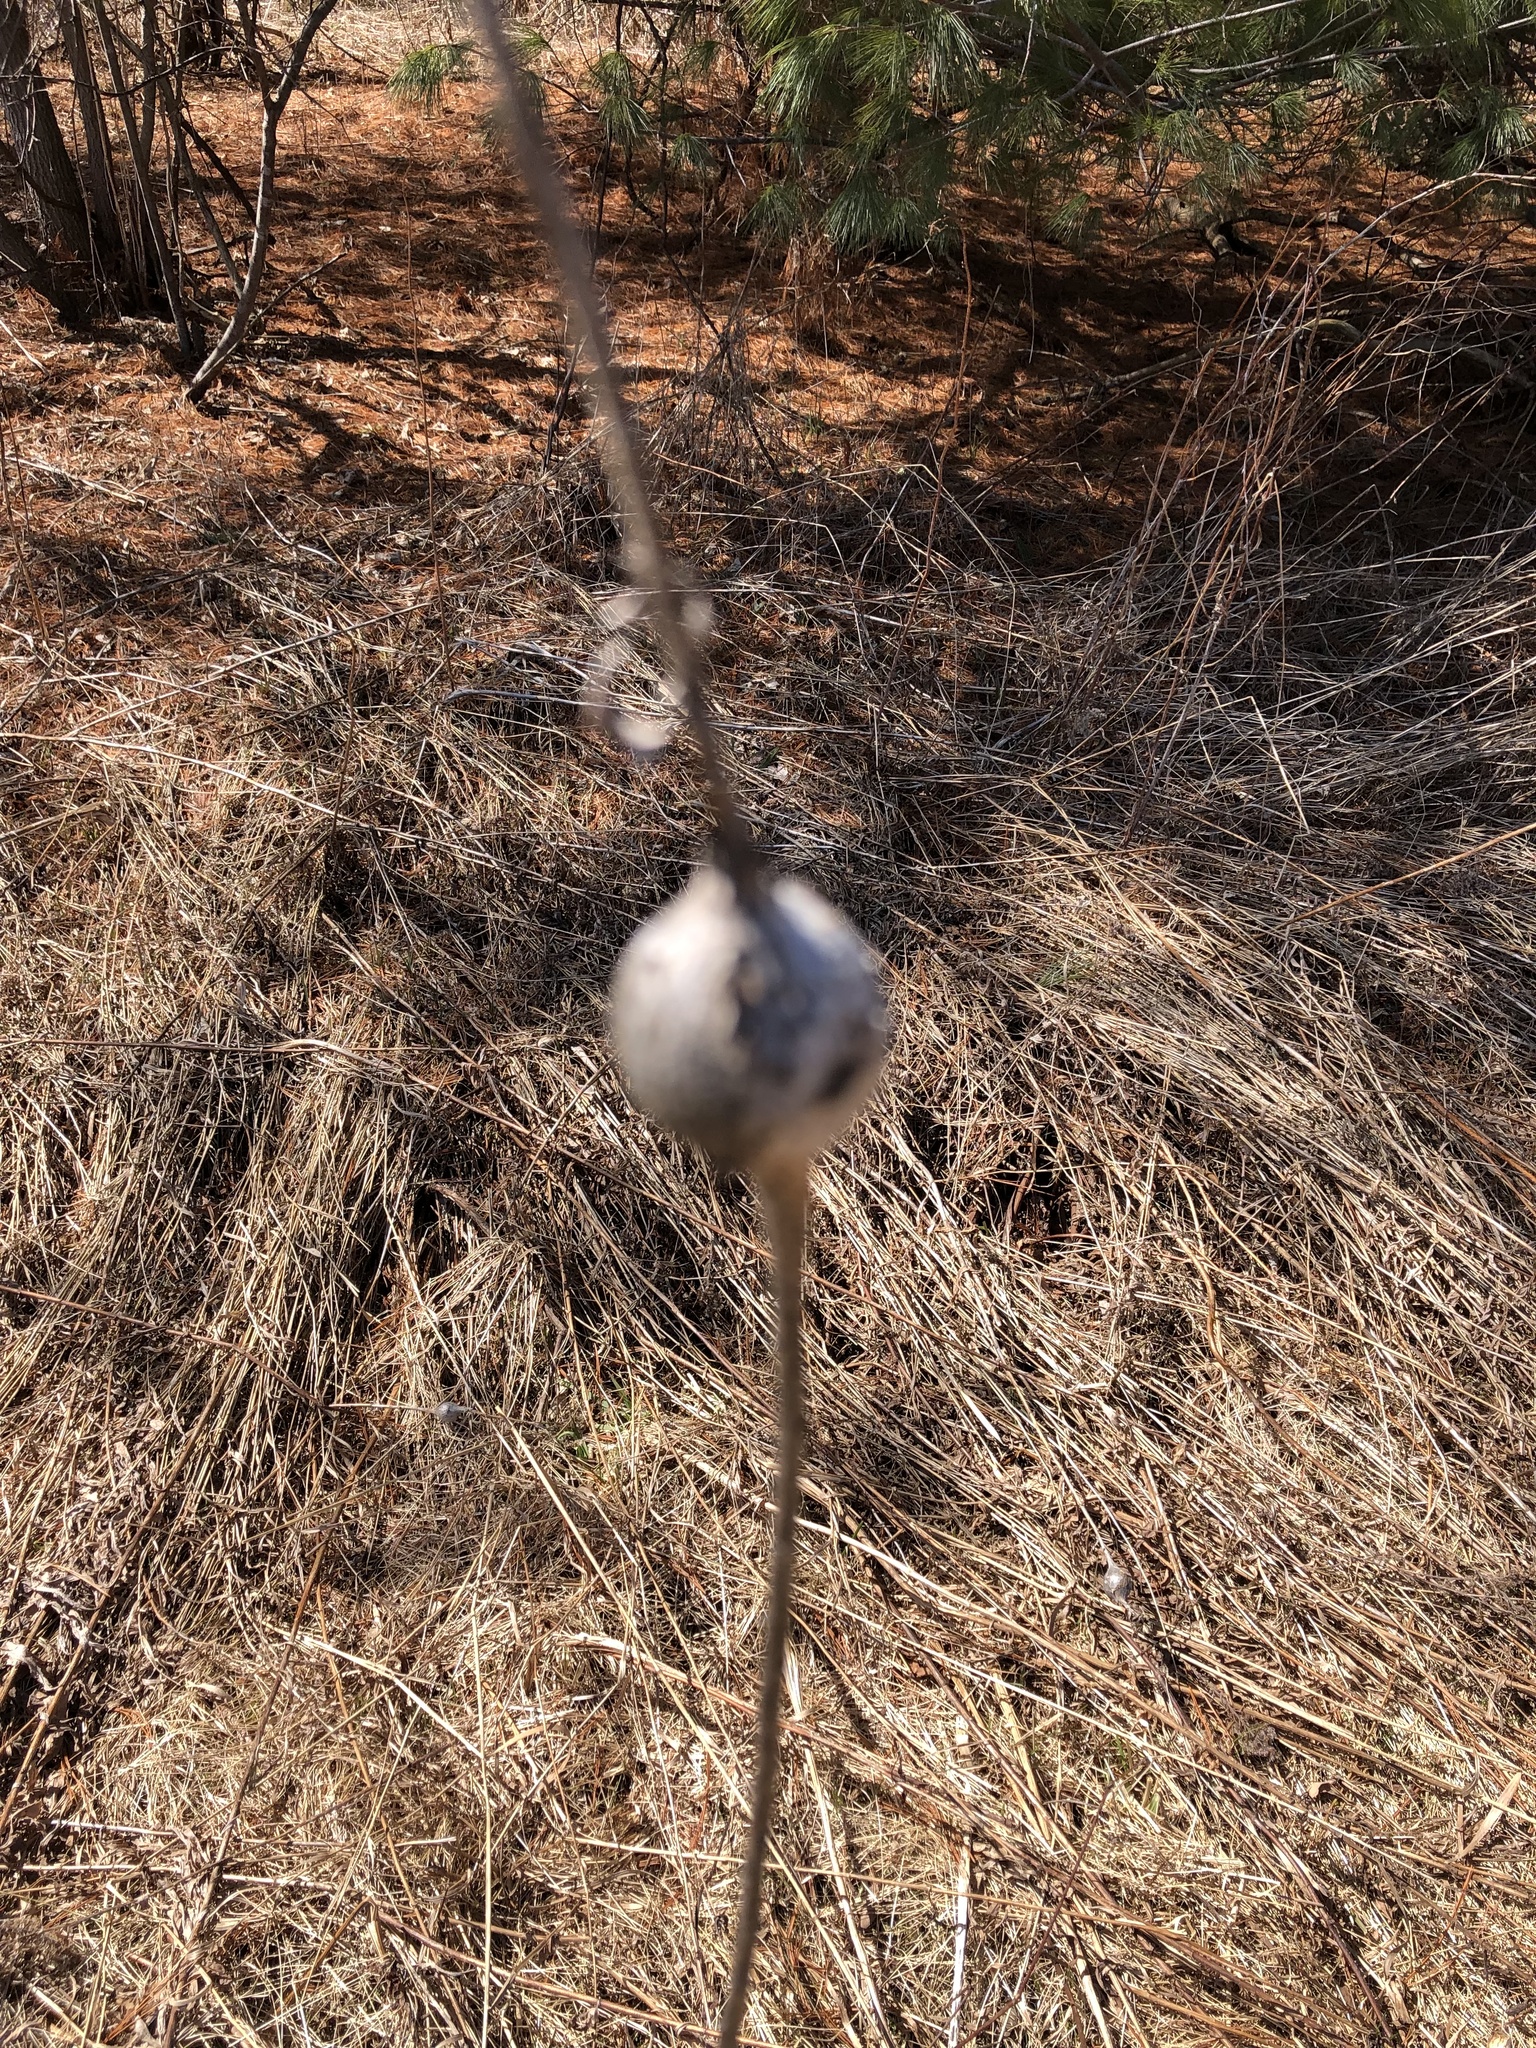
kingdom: Animalia
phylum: Arthropoda
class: Insecta
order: Diptera
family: Tephritidae
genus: Eurosta
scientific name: Eurosta solidaginis
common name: Goldenrod gall fly
